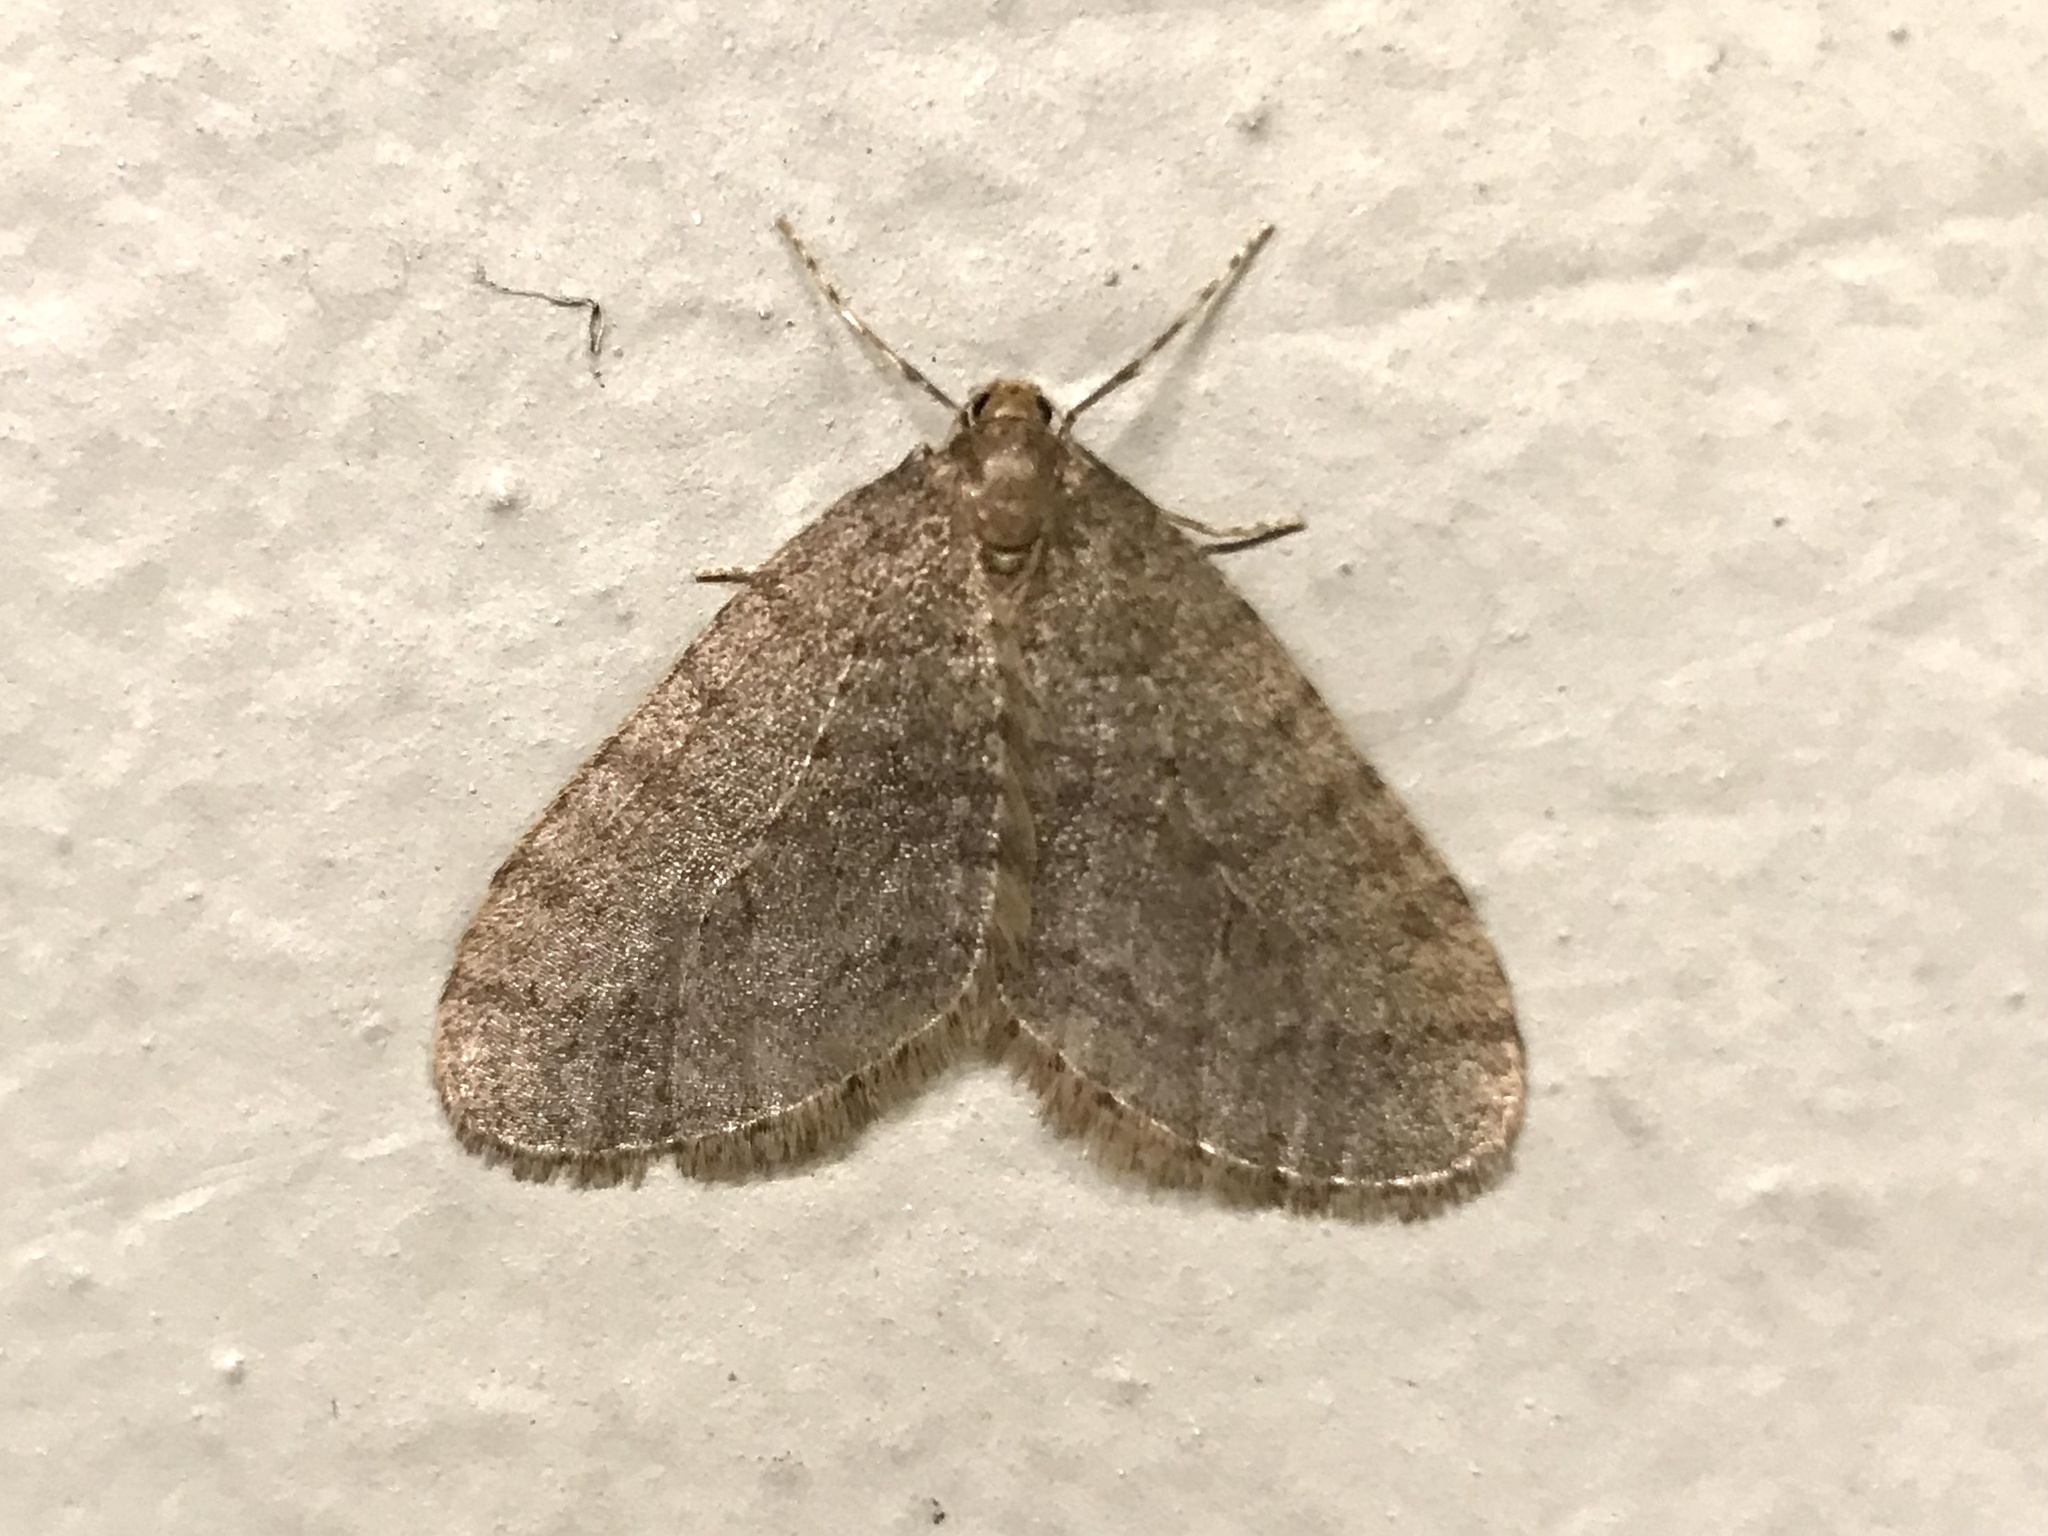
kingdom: Animalia
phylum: Arthropoda
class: Insecta
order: Lepidoptera
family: Geometridae
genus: Operophtera
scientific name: Operophtera brumata
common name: Winter moth
